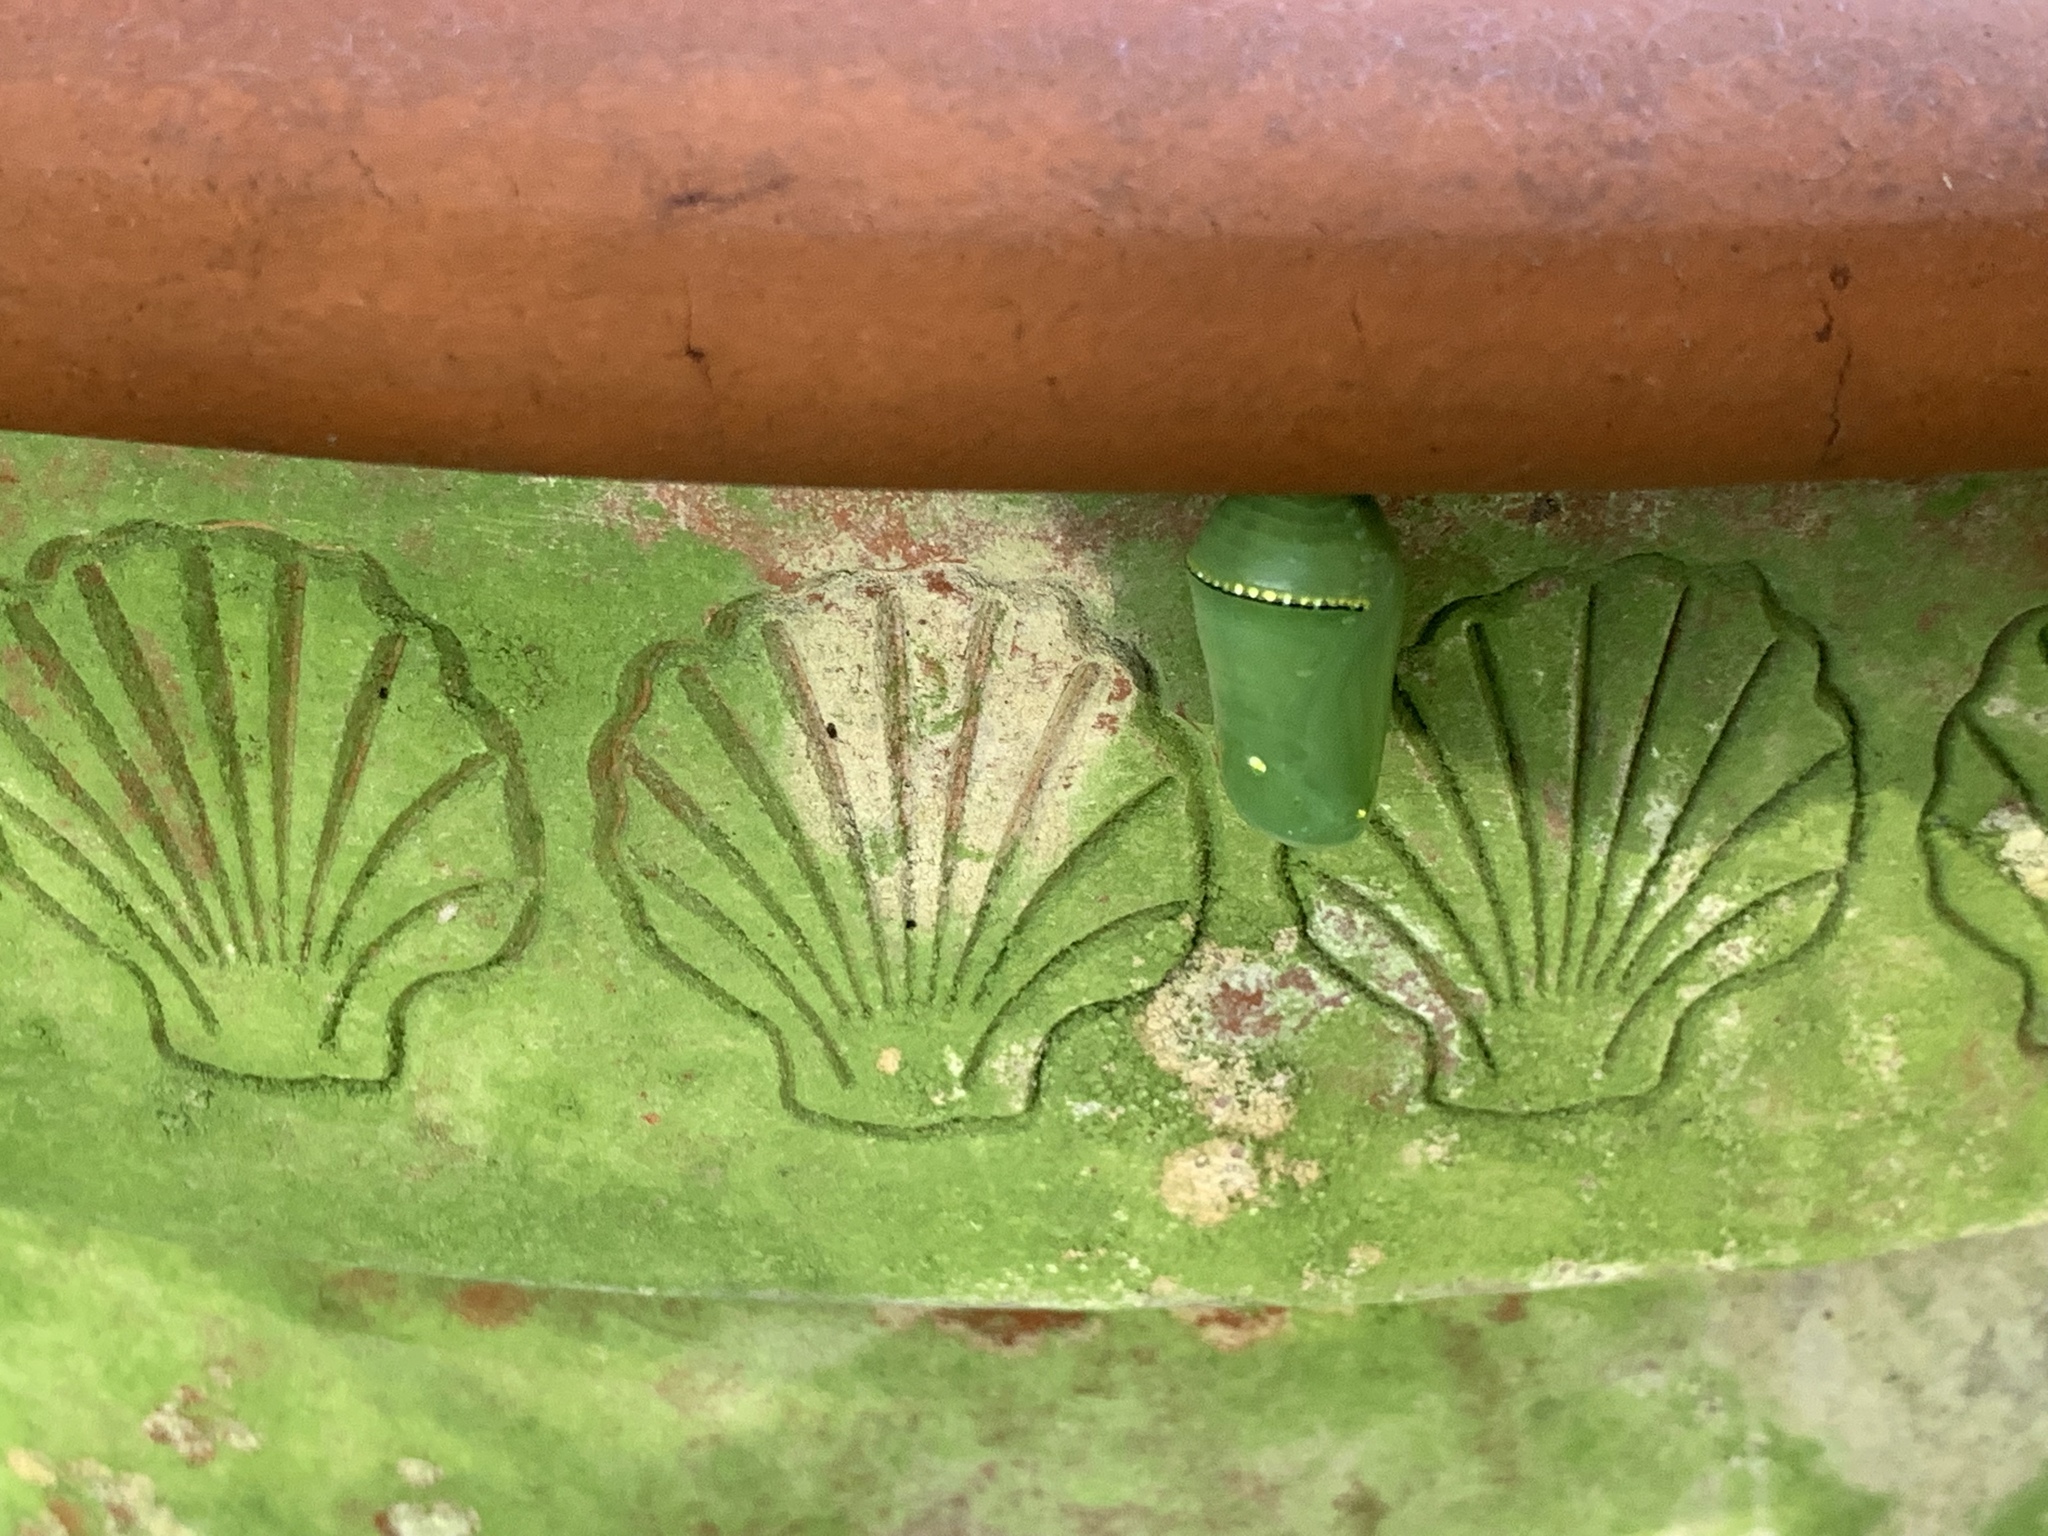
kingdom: Animalia
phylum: Arthropoda
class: Insecta
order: Lepidoptera
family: Nymphalidae
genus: Danaus
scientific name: Danaus plexippus
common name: Monarch
